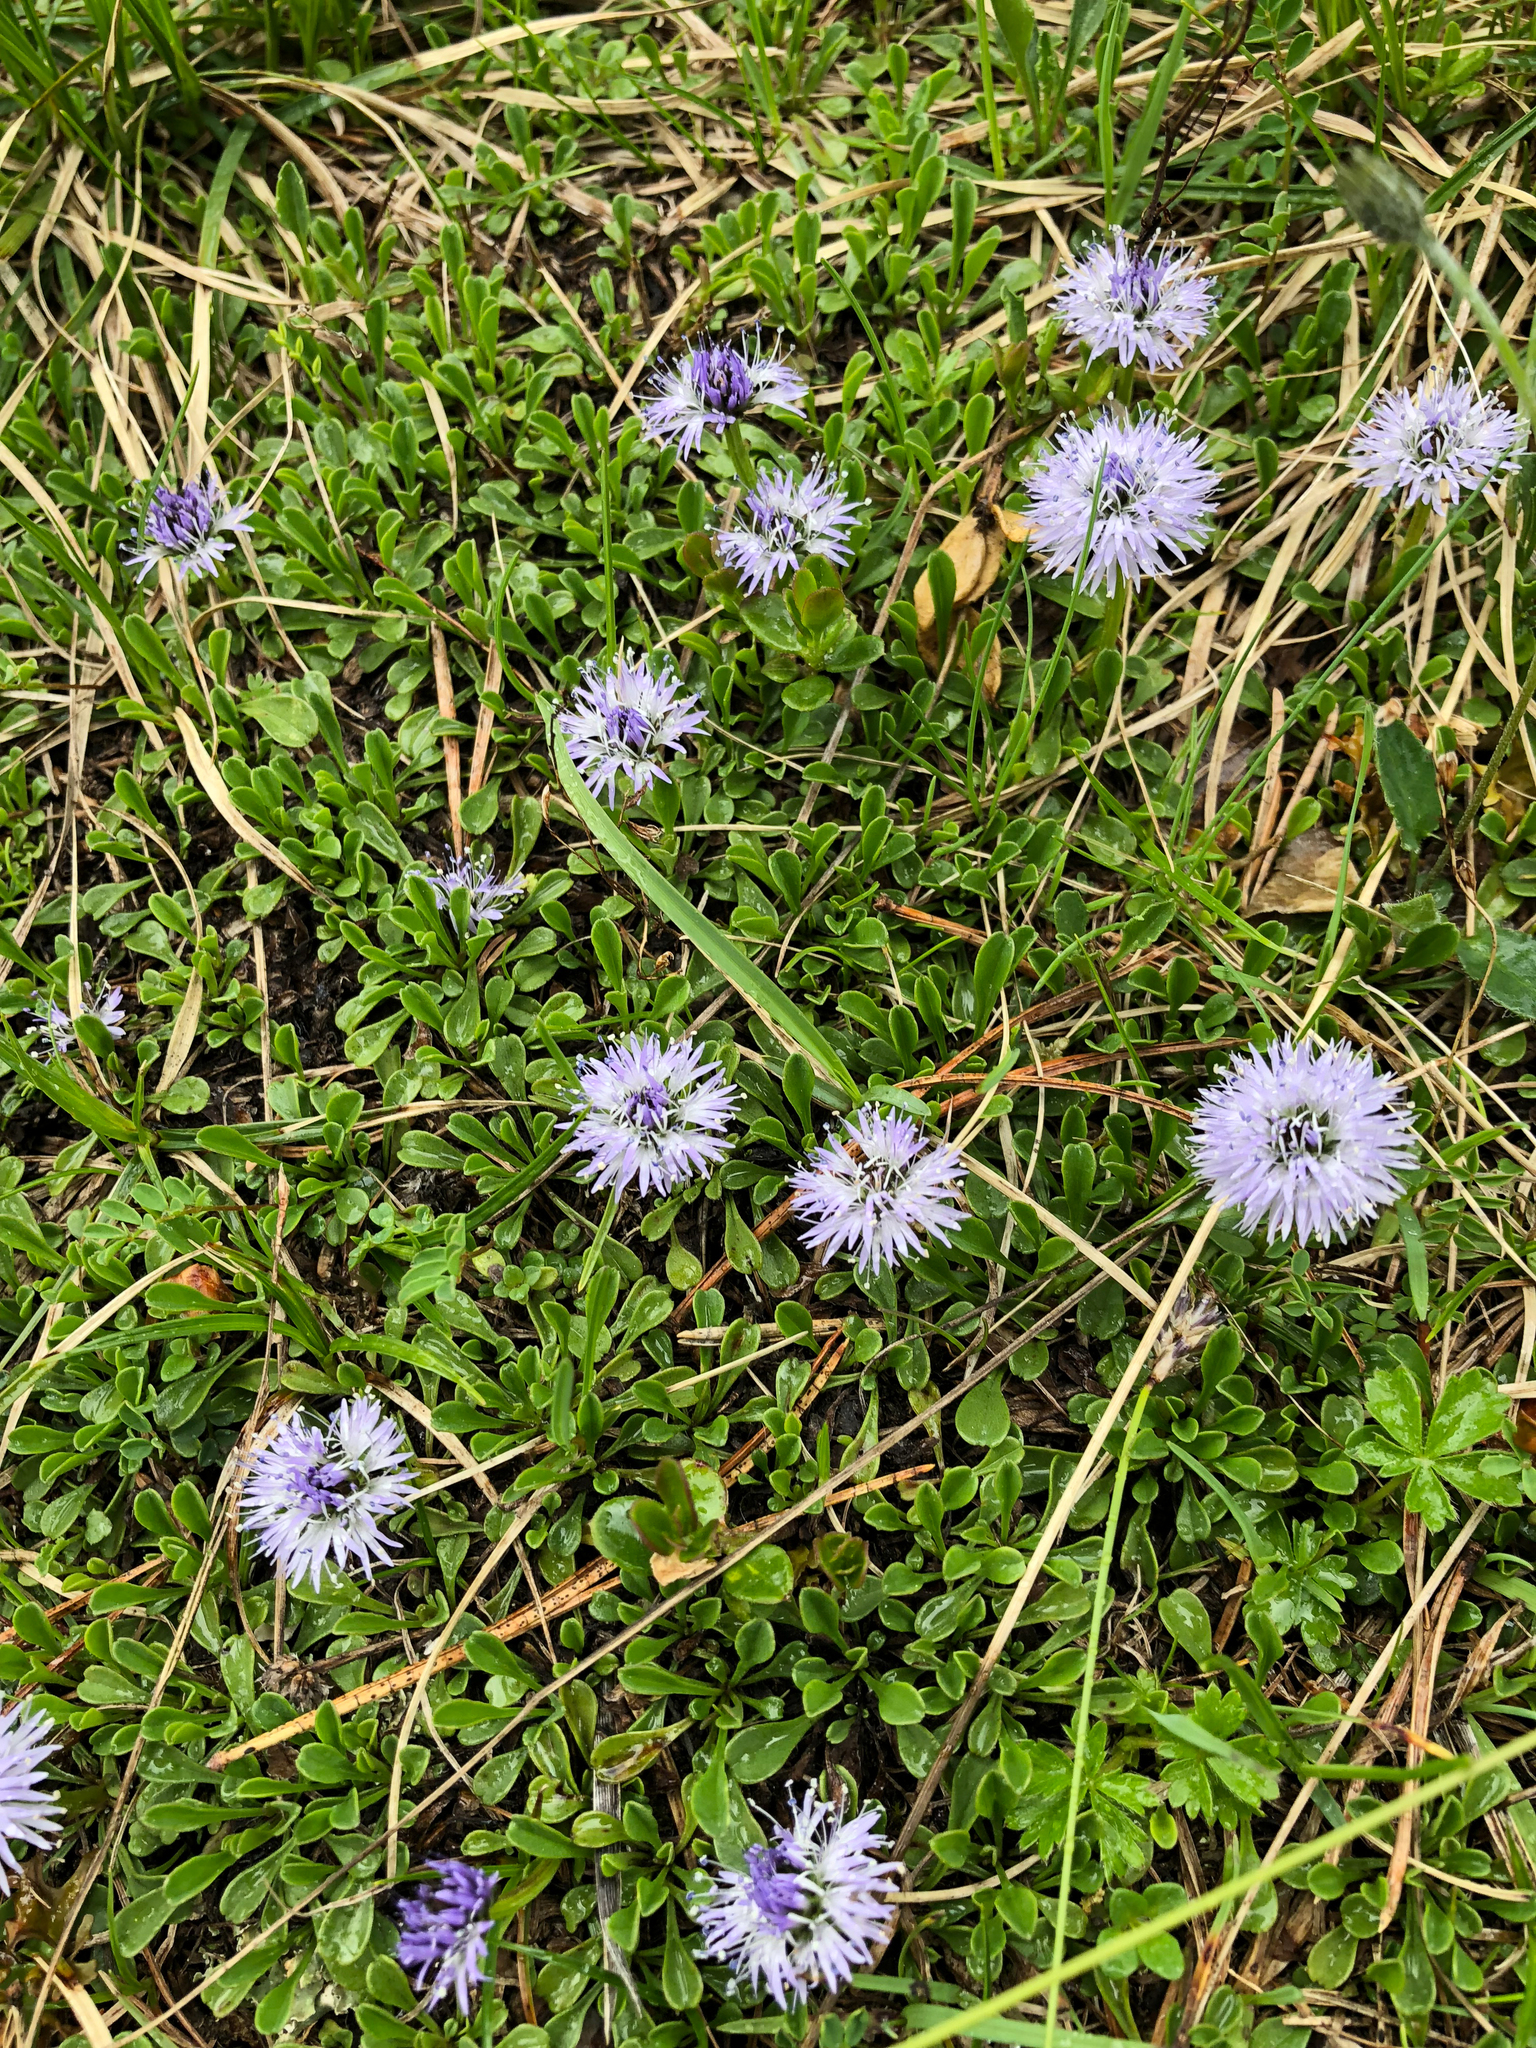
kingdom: Plantae
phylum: Tracheophyta
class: Magnoliopsida
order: Lamiales
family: Plantaginaceae
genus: Globularia
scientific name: Globularia cordifolia
